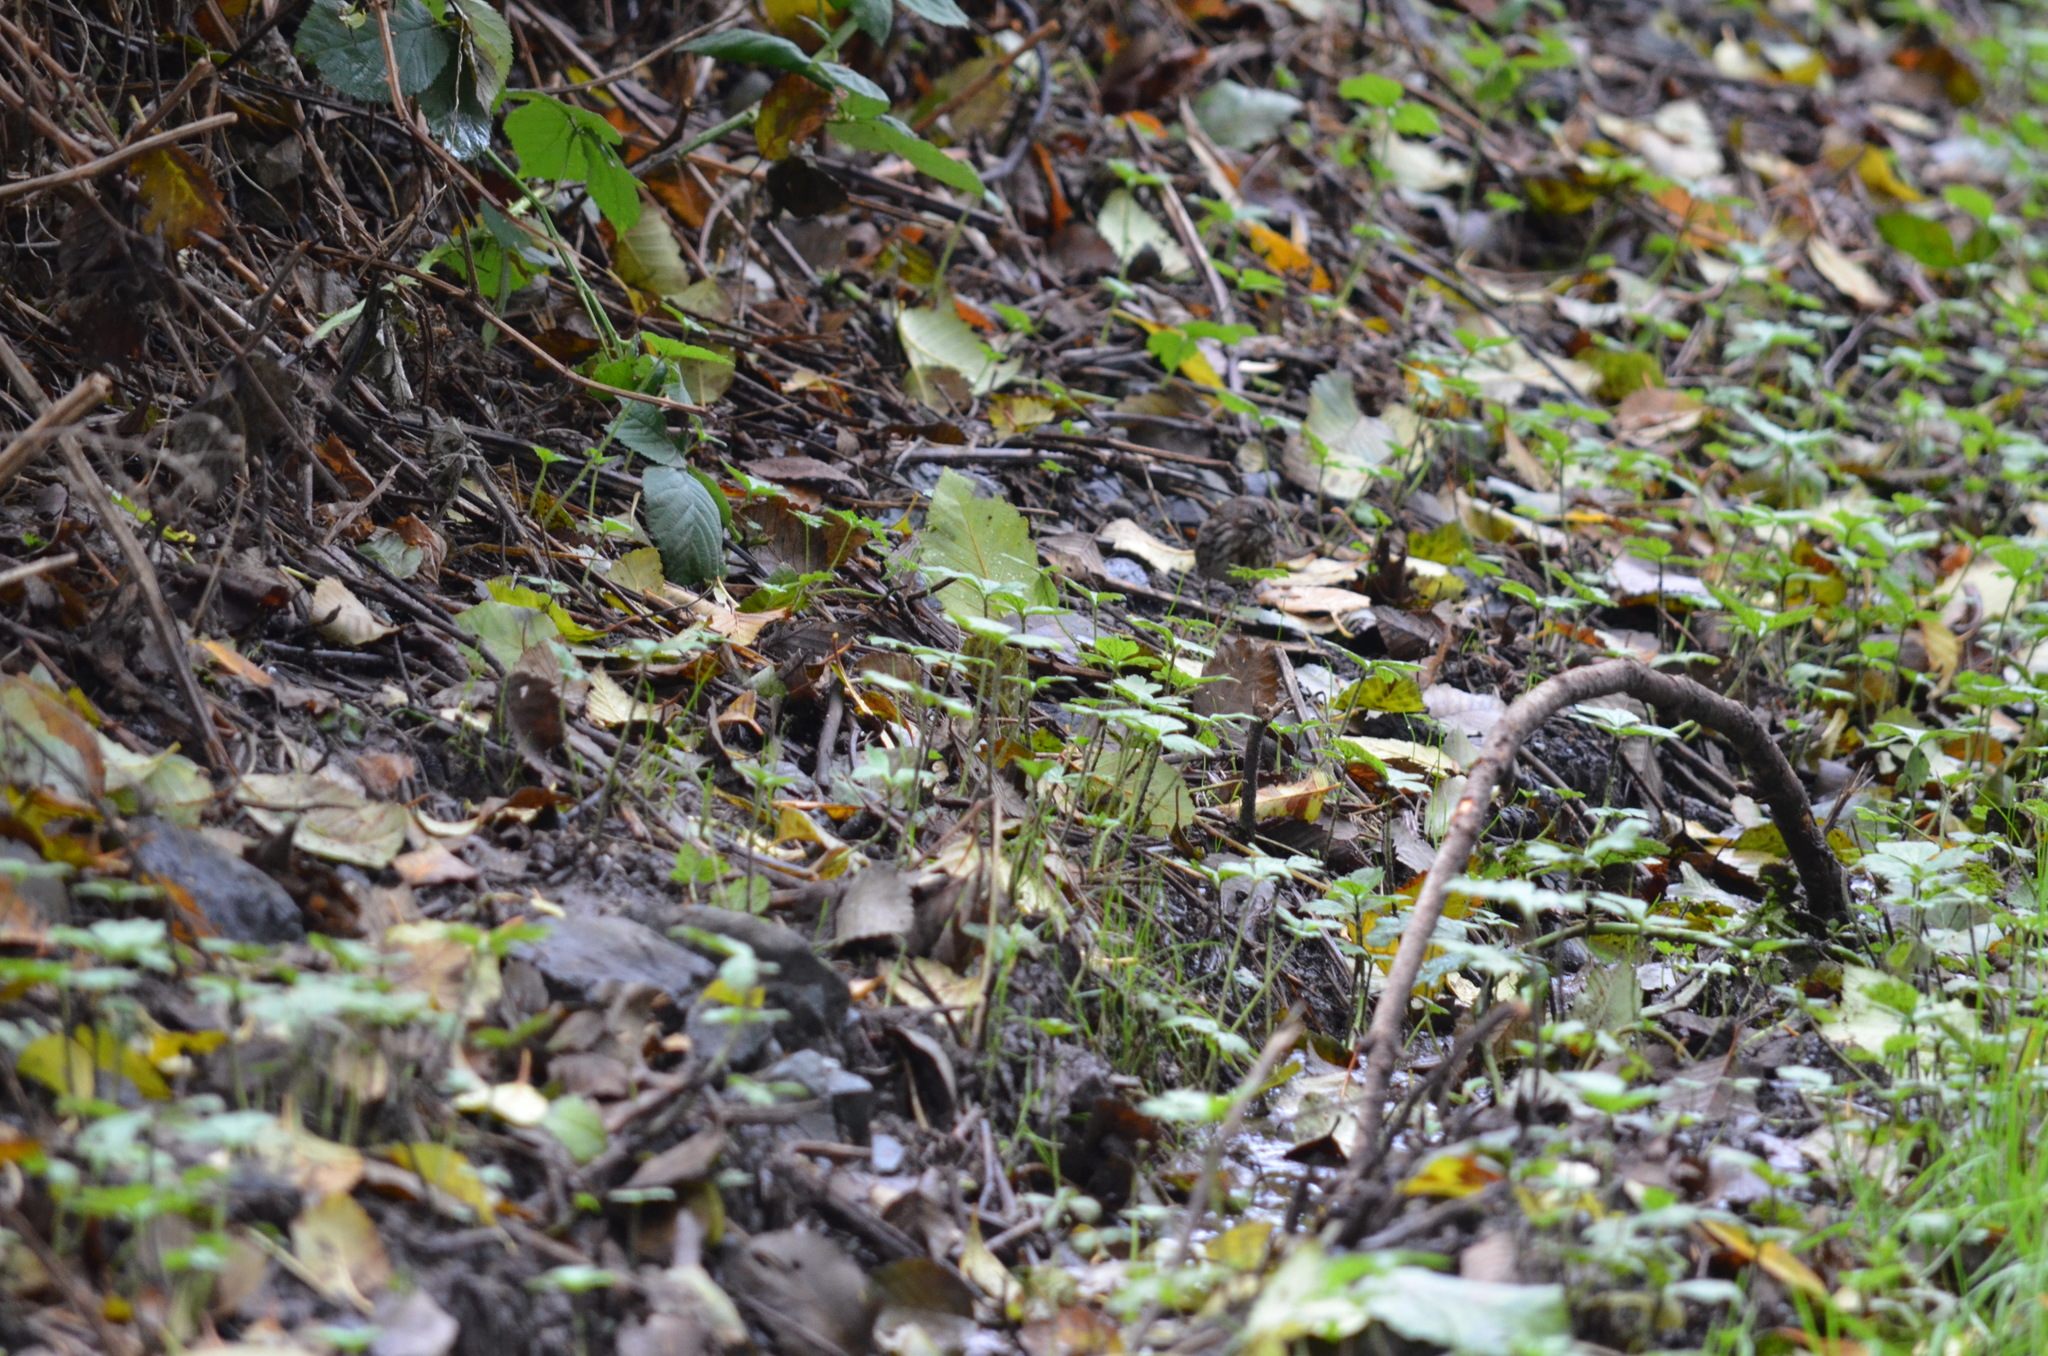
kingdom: Animalia
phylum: Chordata
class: Aves
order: Passeriformes
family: Passerellidae
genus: Melospiza
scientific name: Melospiza melodia
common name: Song sparrow
